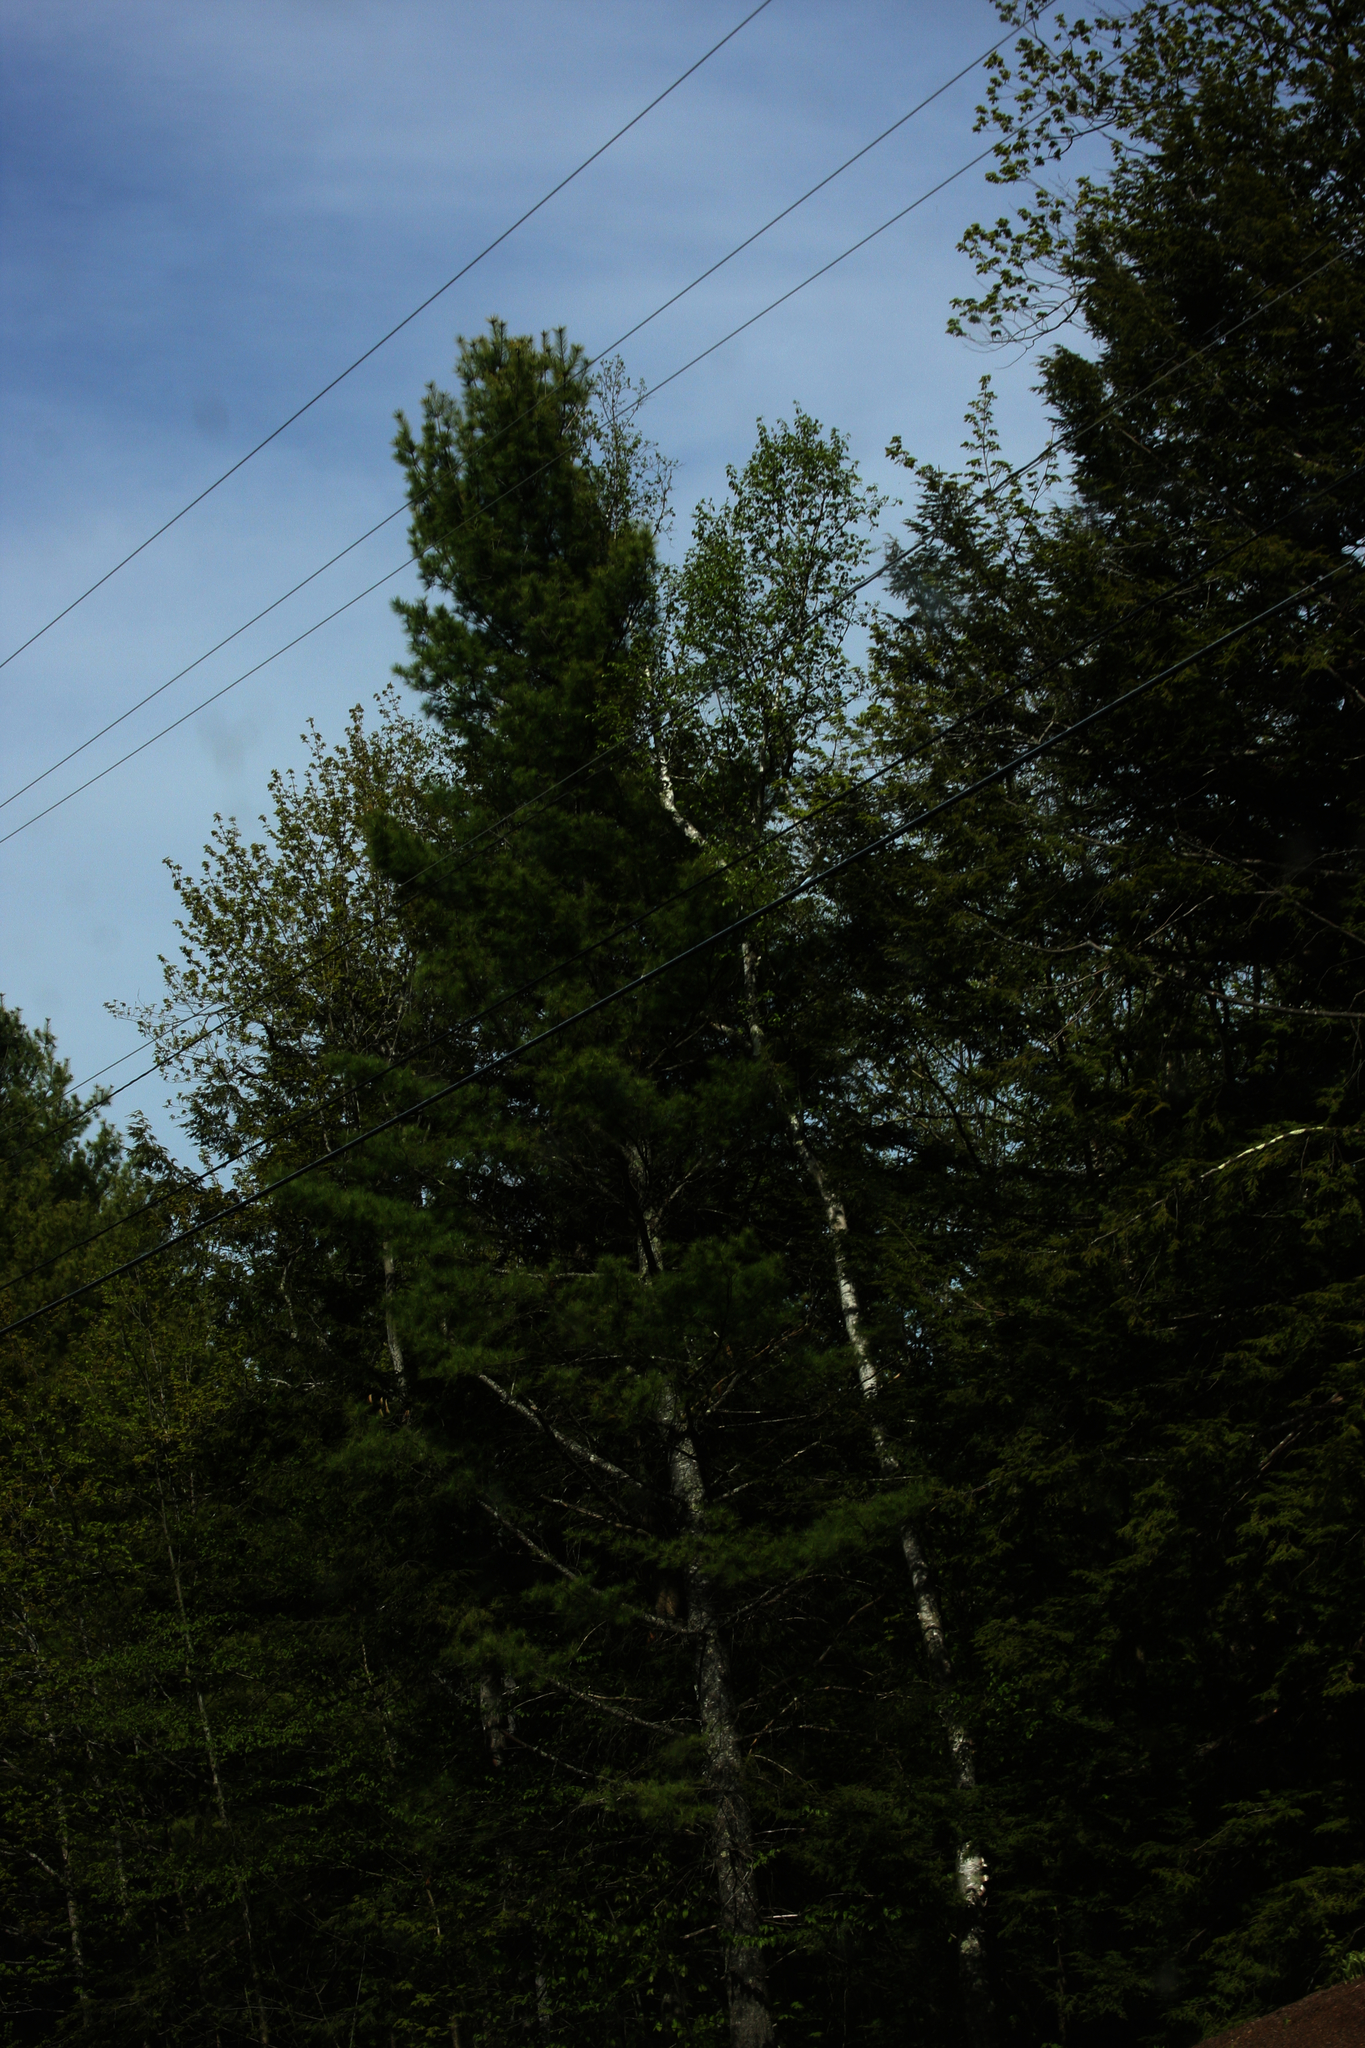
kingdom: Plantae
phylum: Tracheophyta
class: Pinopsida
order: Pinales
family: Pinaceae
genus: Pinus
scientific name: Pinus strobus
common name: Weymouth pine
